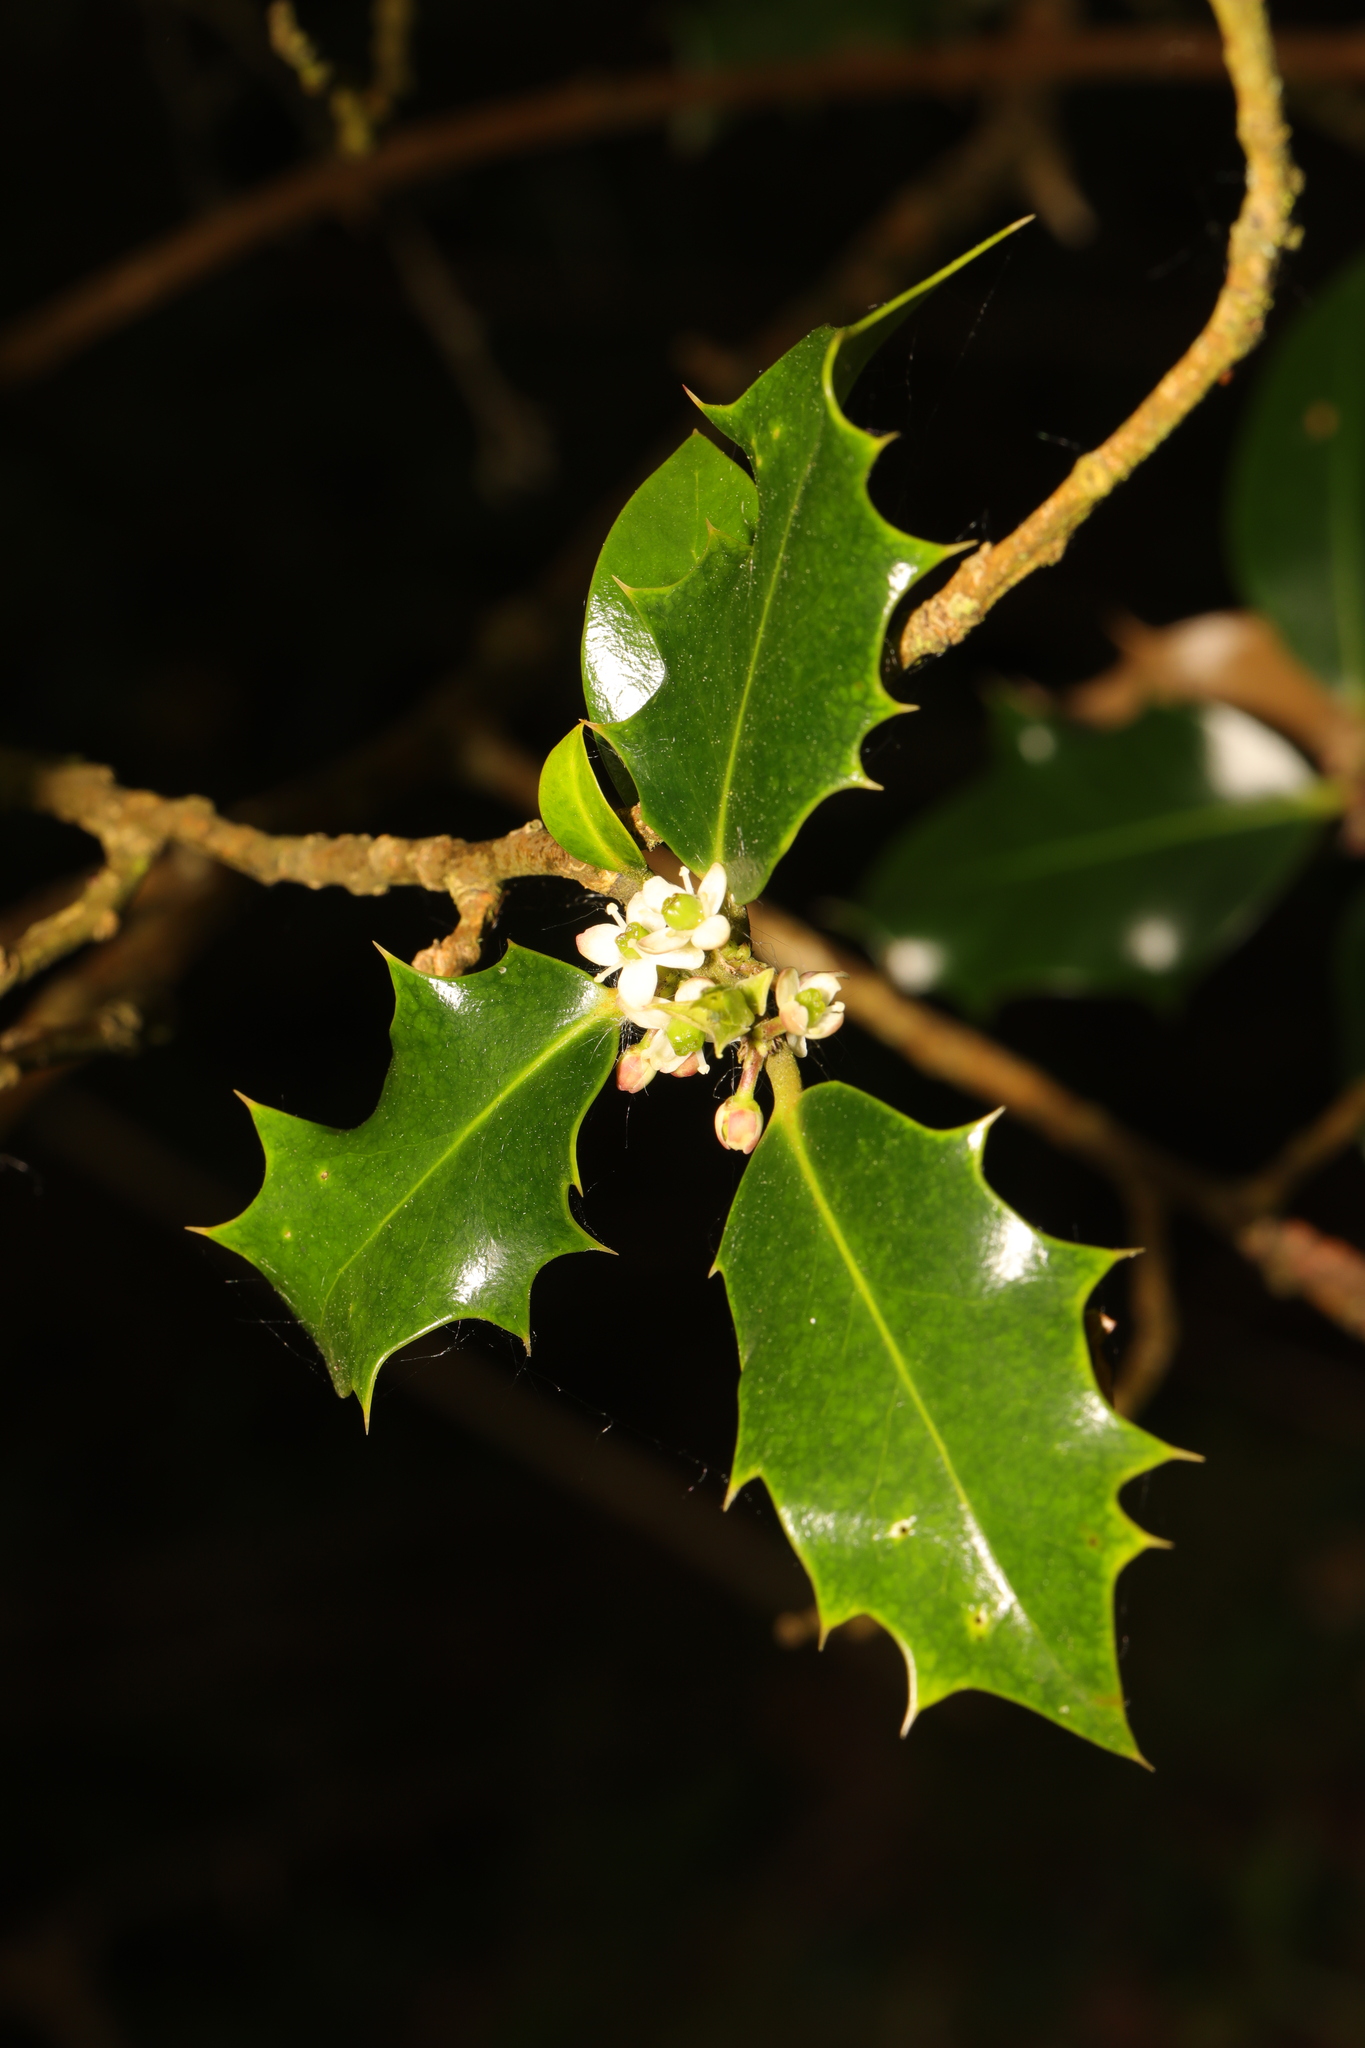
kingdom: Plantae
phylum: Tracheophyta
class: Magnoliopsida
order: Aquifoliales
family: Aquifoliaceae
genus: Ilex
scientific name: Ilex aquifolium
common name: English holly
